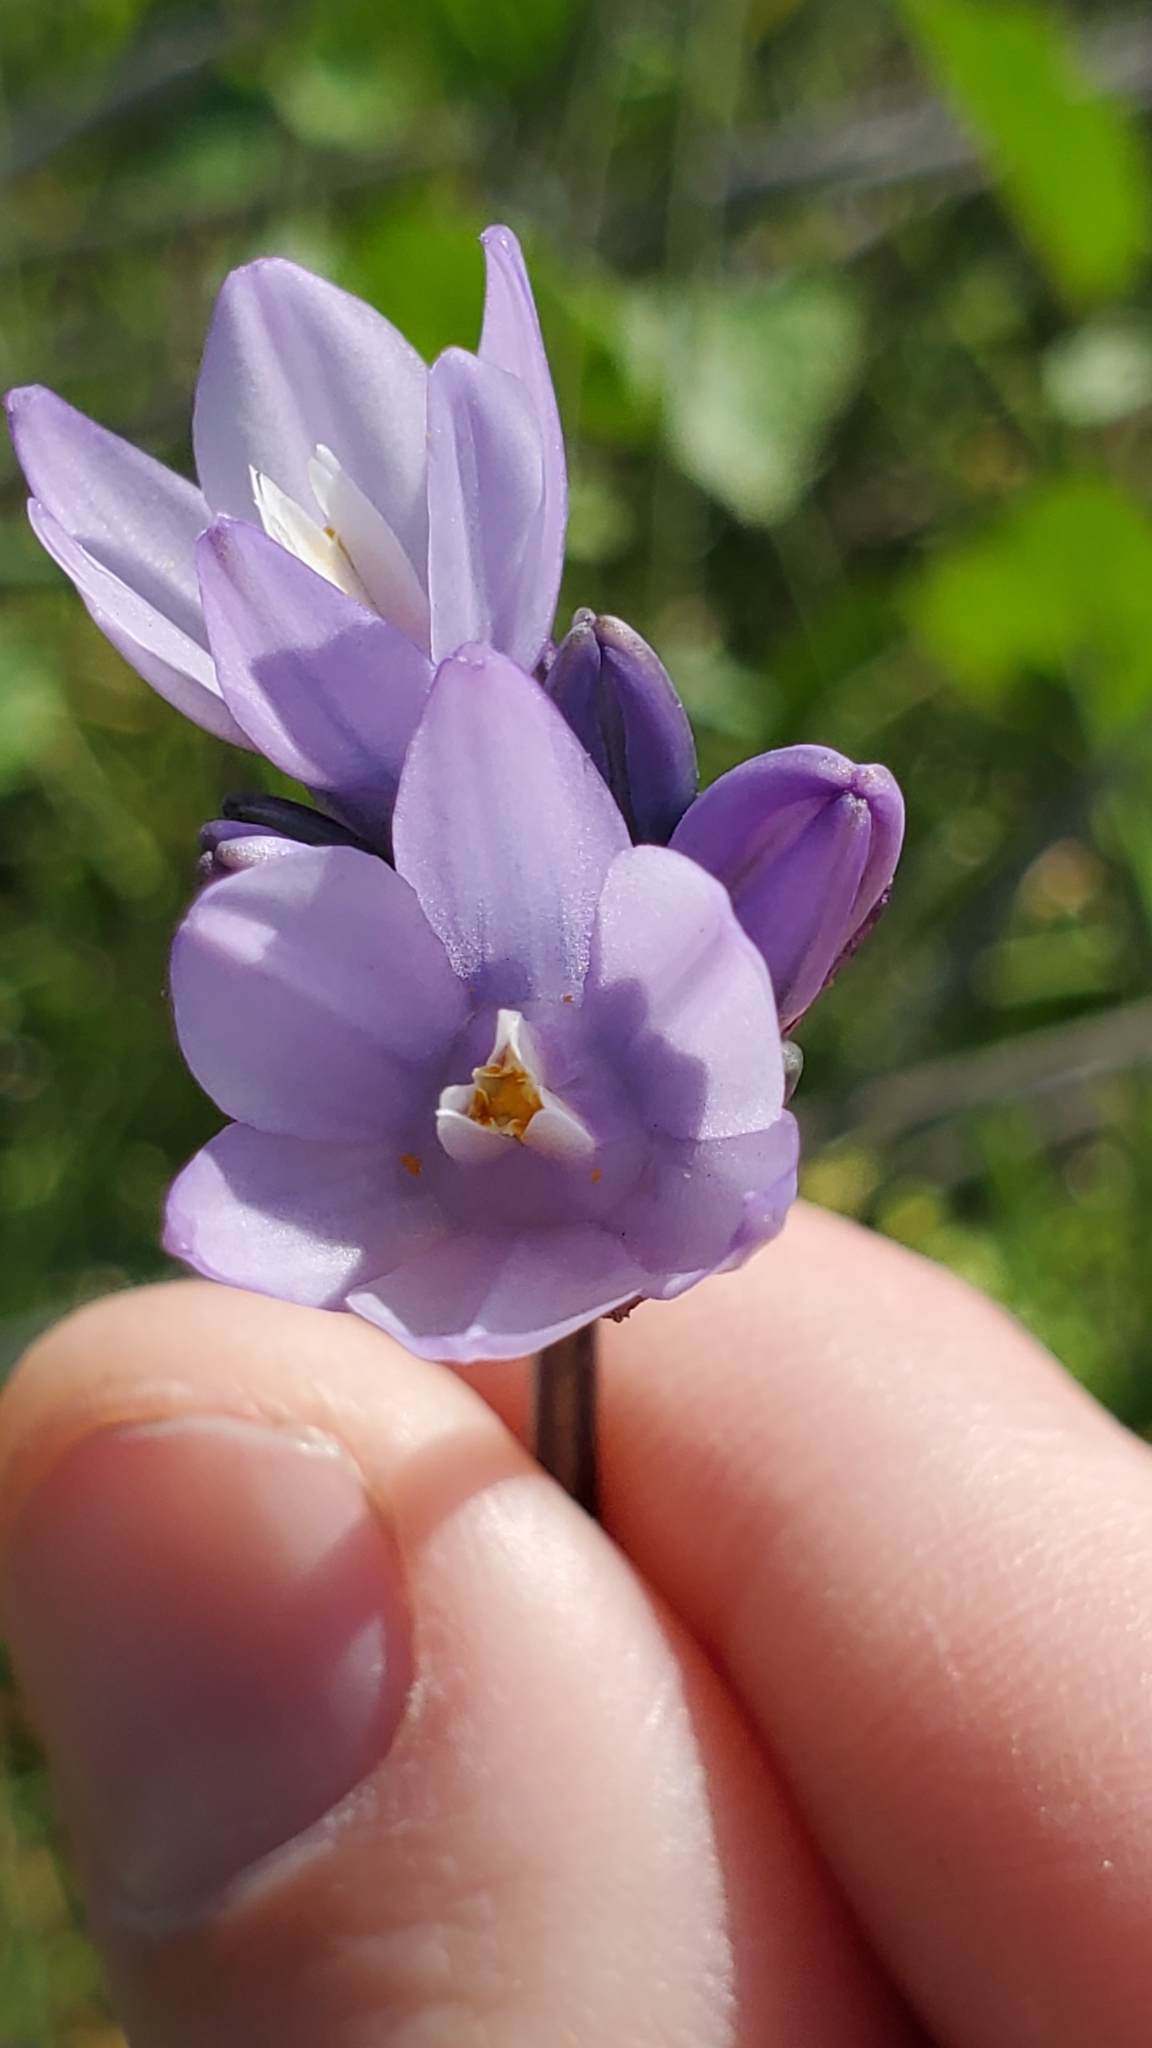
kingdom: Plantae
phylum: Tracheophyta
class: Liliopsida
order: Asparagales
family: Asparagaceae
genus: Dipterostemon
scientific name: Dipterostemon capitatus
